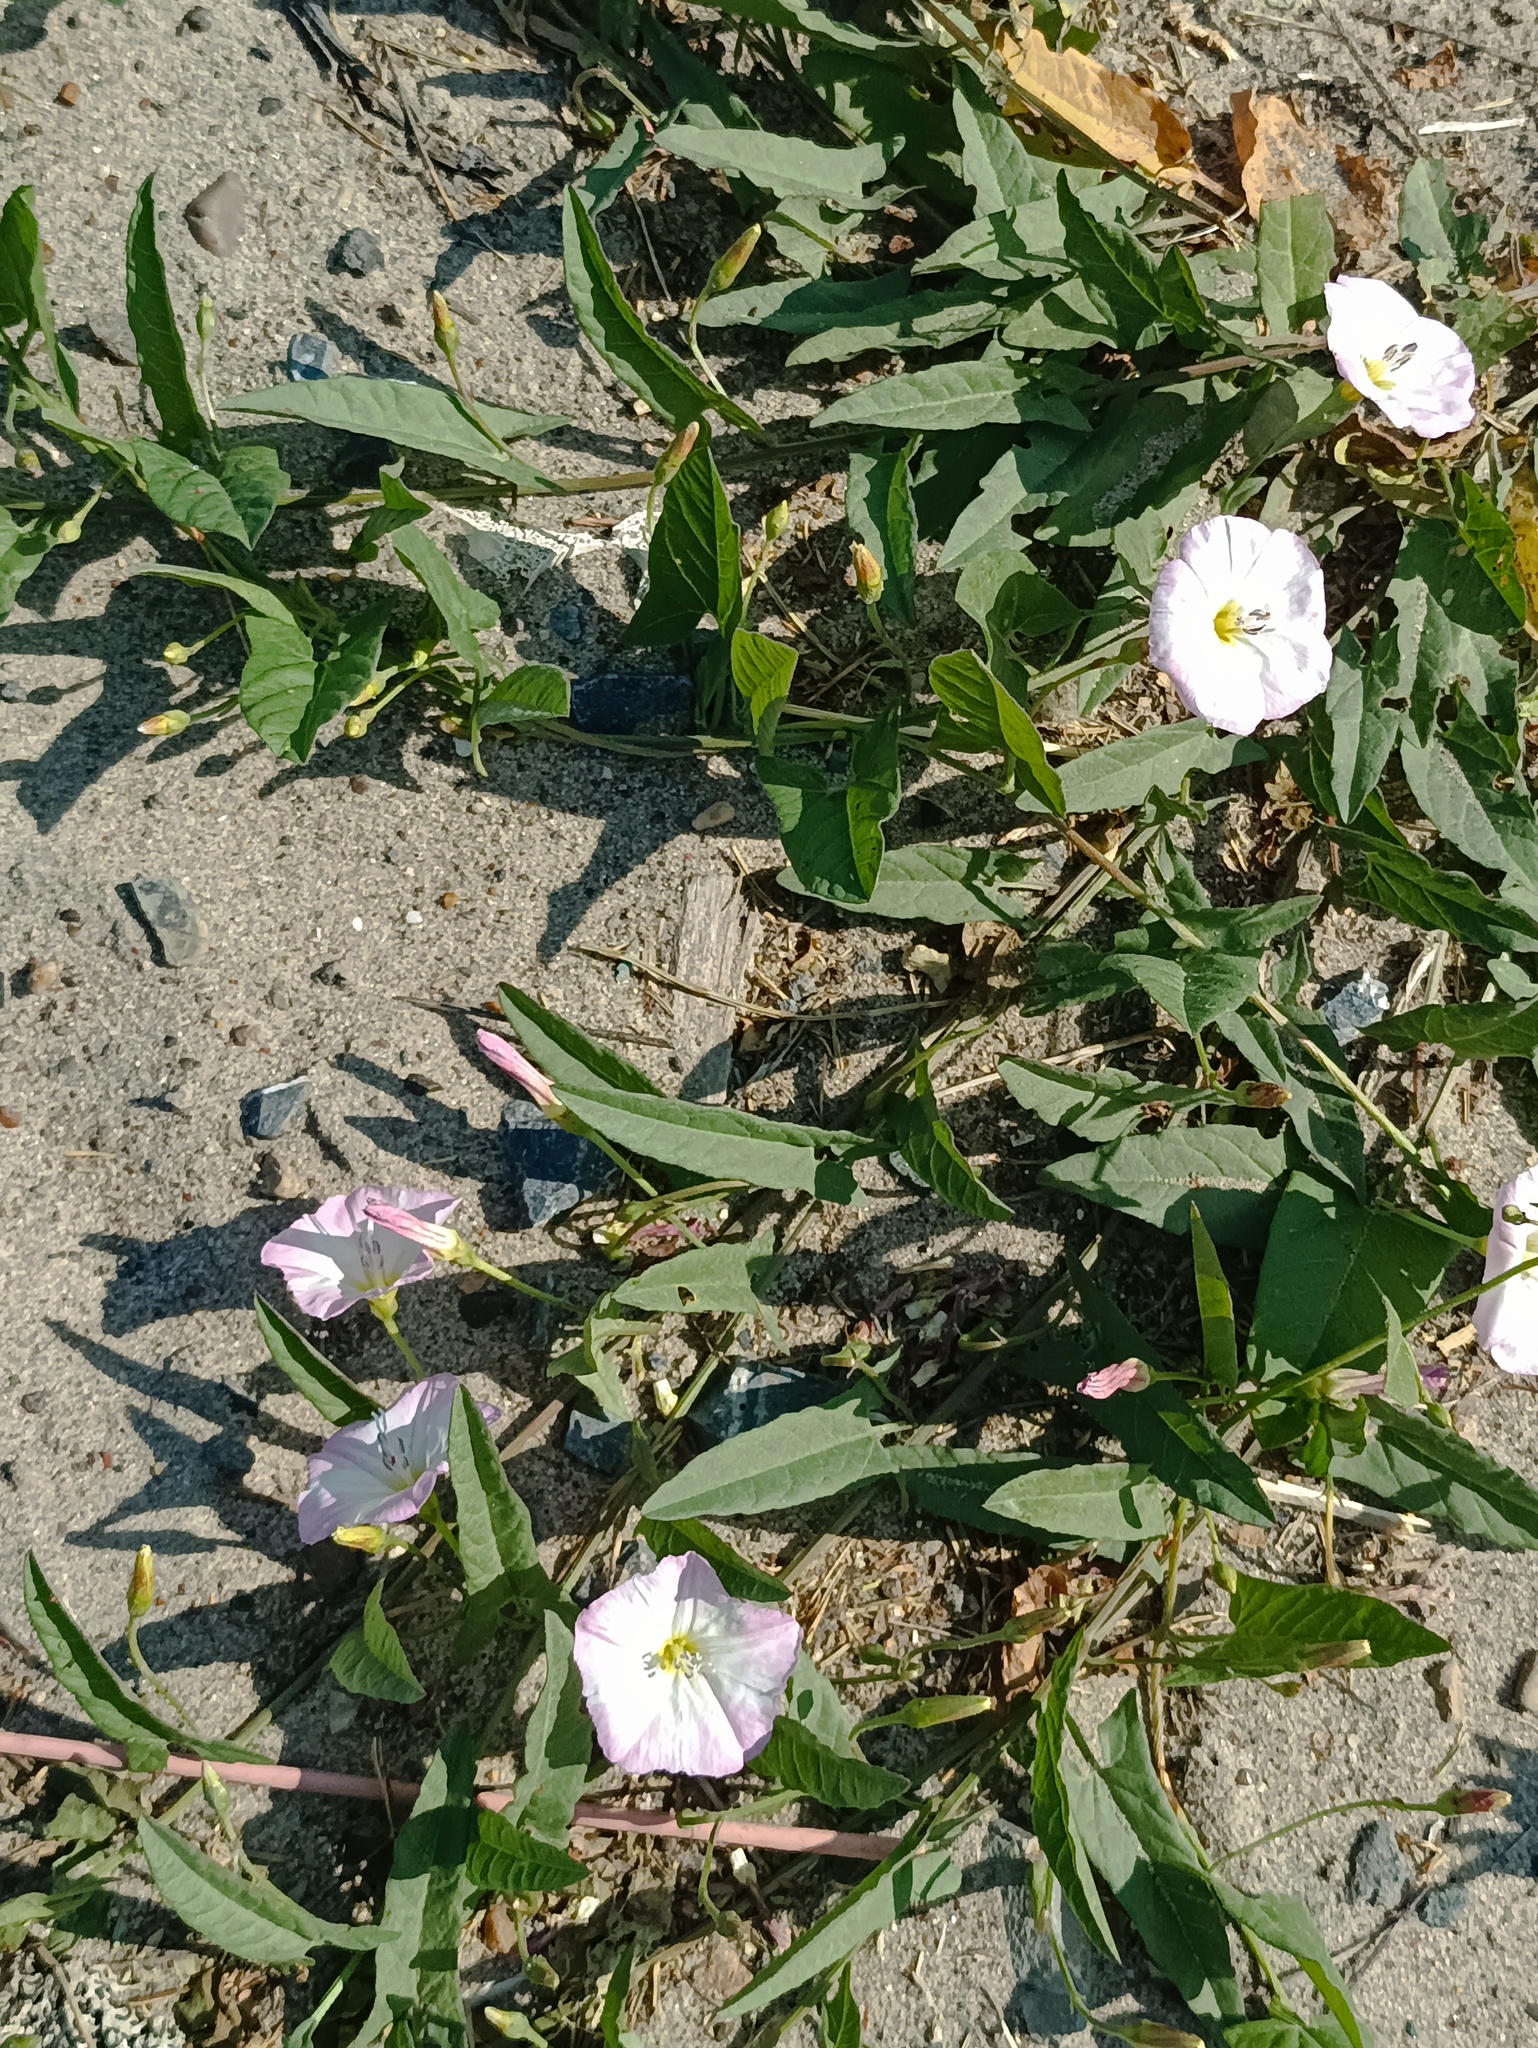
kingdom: Plantae
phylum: Tracheophyta
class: Magnoliopsida
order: Solanales
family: Convolvulaceae
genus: Convolvulus
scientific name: Convolvulus arvensis
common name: Field bindweed
